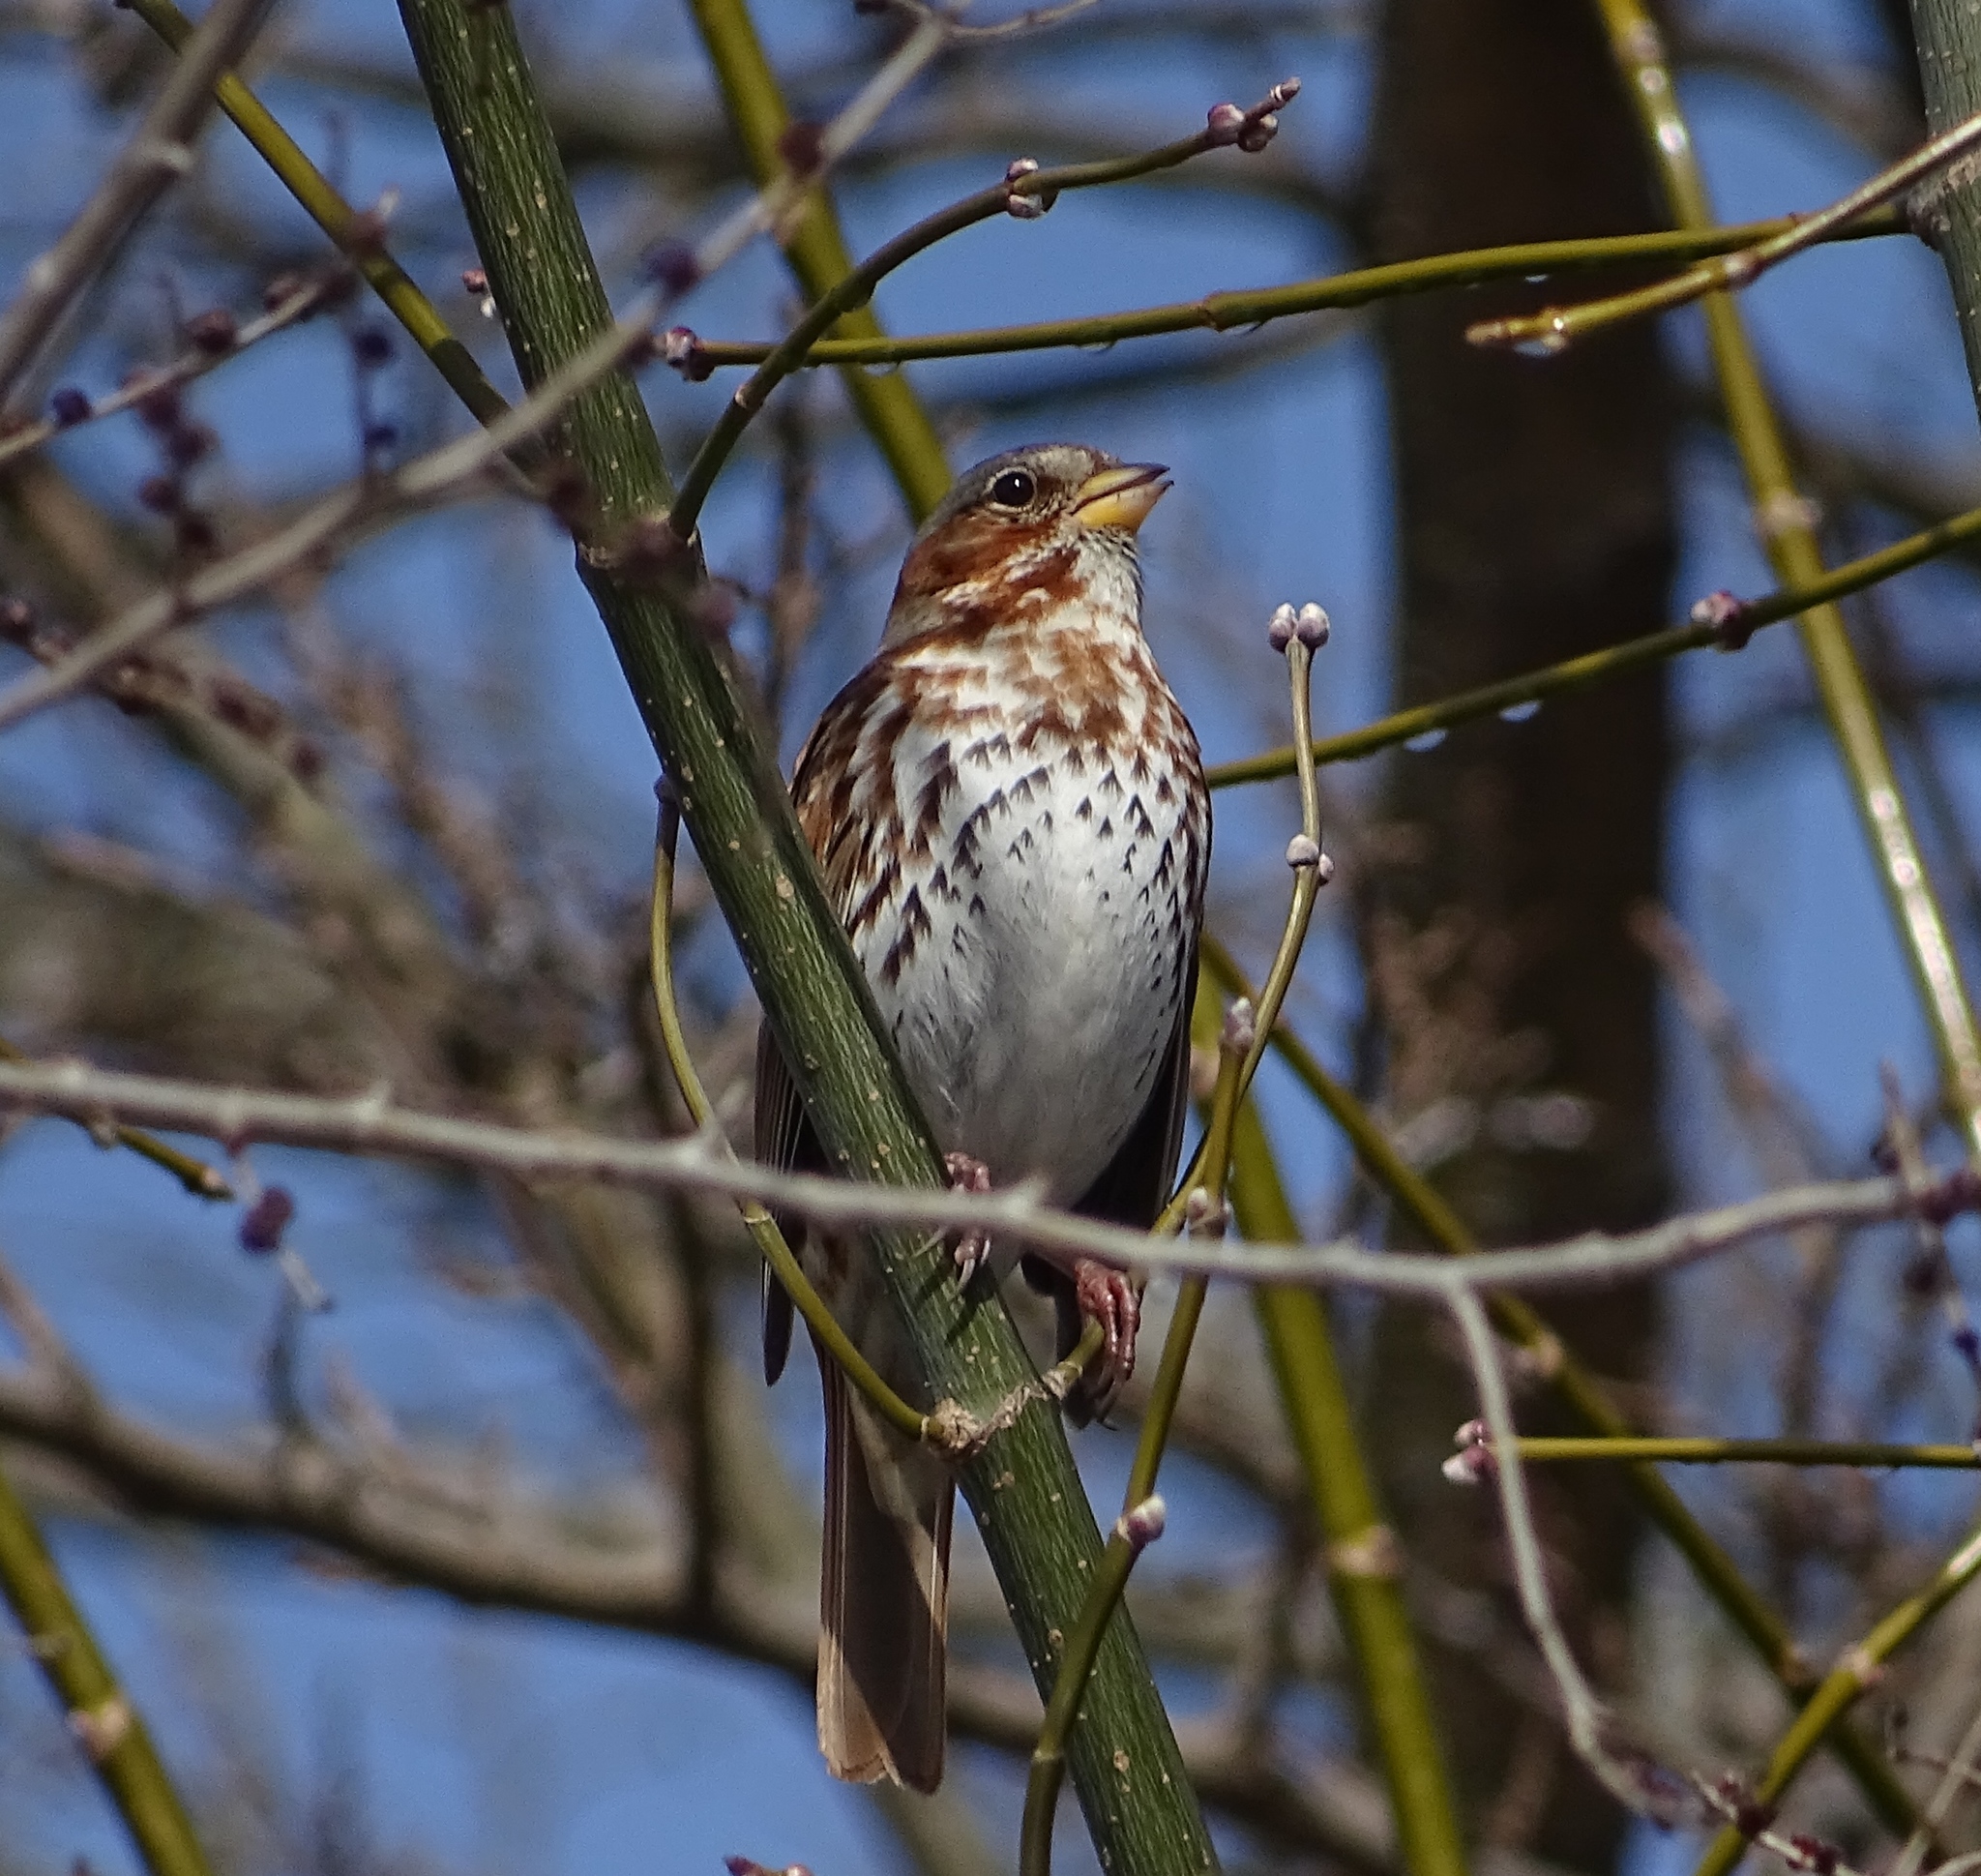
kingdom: Animalia
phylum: Chordata
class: Aves
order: Passeriformes
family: Passerellidae
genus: Passerella
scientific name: Passerella iliaca
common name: Fox sparrow
